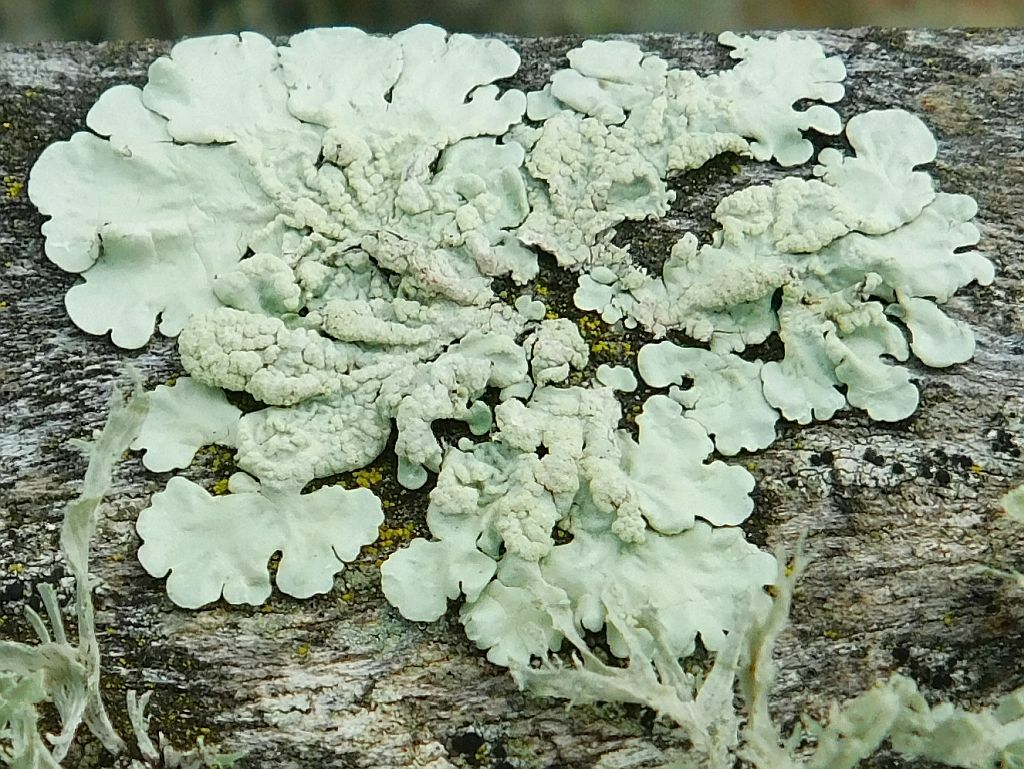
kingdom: Fungi
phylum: Ascomycota
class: Lecanoromycetes
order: Lecanorales
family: Parmeliaceae
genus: Flavoparmelia
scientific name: Flavoparmelia soredians
